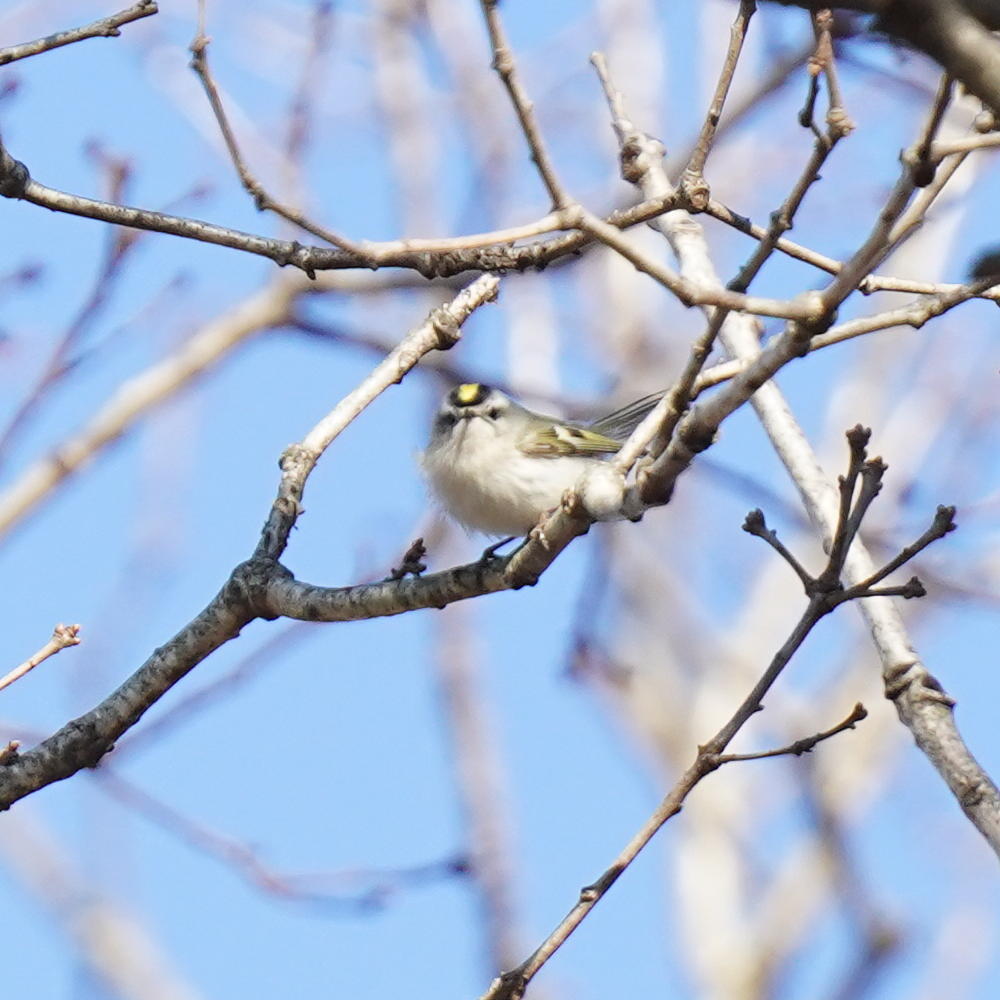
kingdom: Animalia
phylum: Chordata
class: Aves
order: Passeriformes
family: Regulidae
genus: Regulus
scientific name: Regulus satrapa
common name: Golden-crowned kinglet
